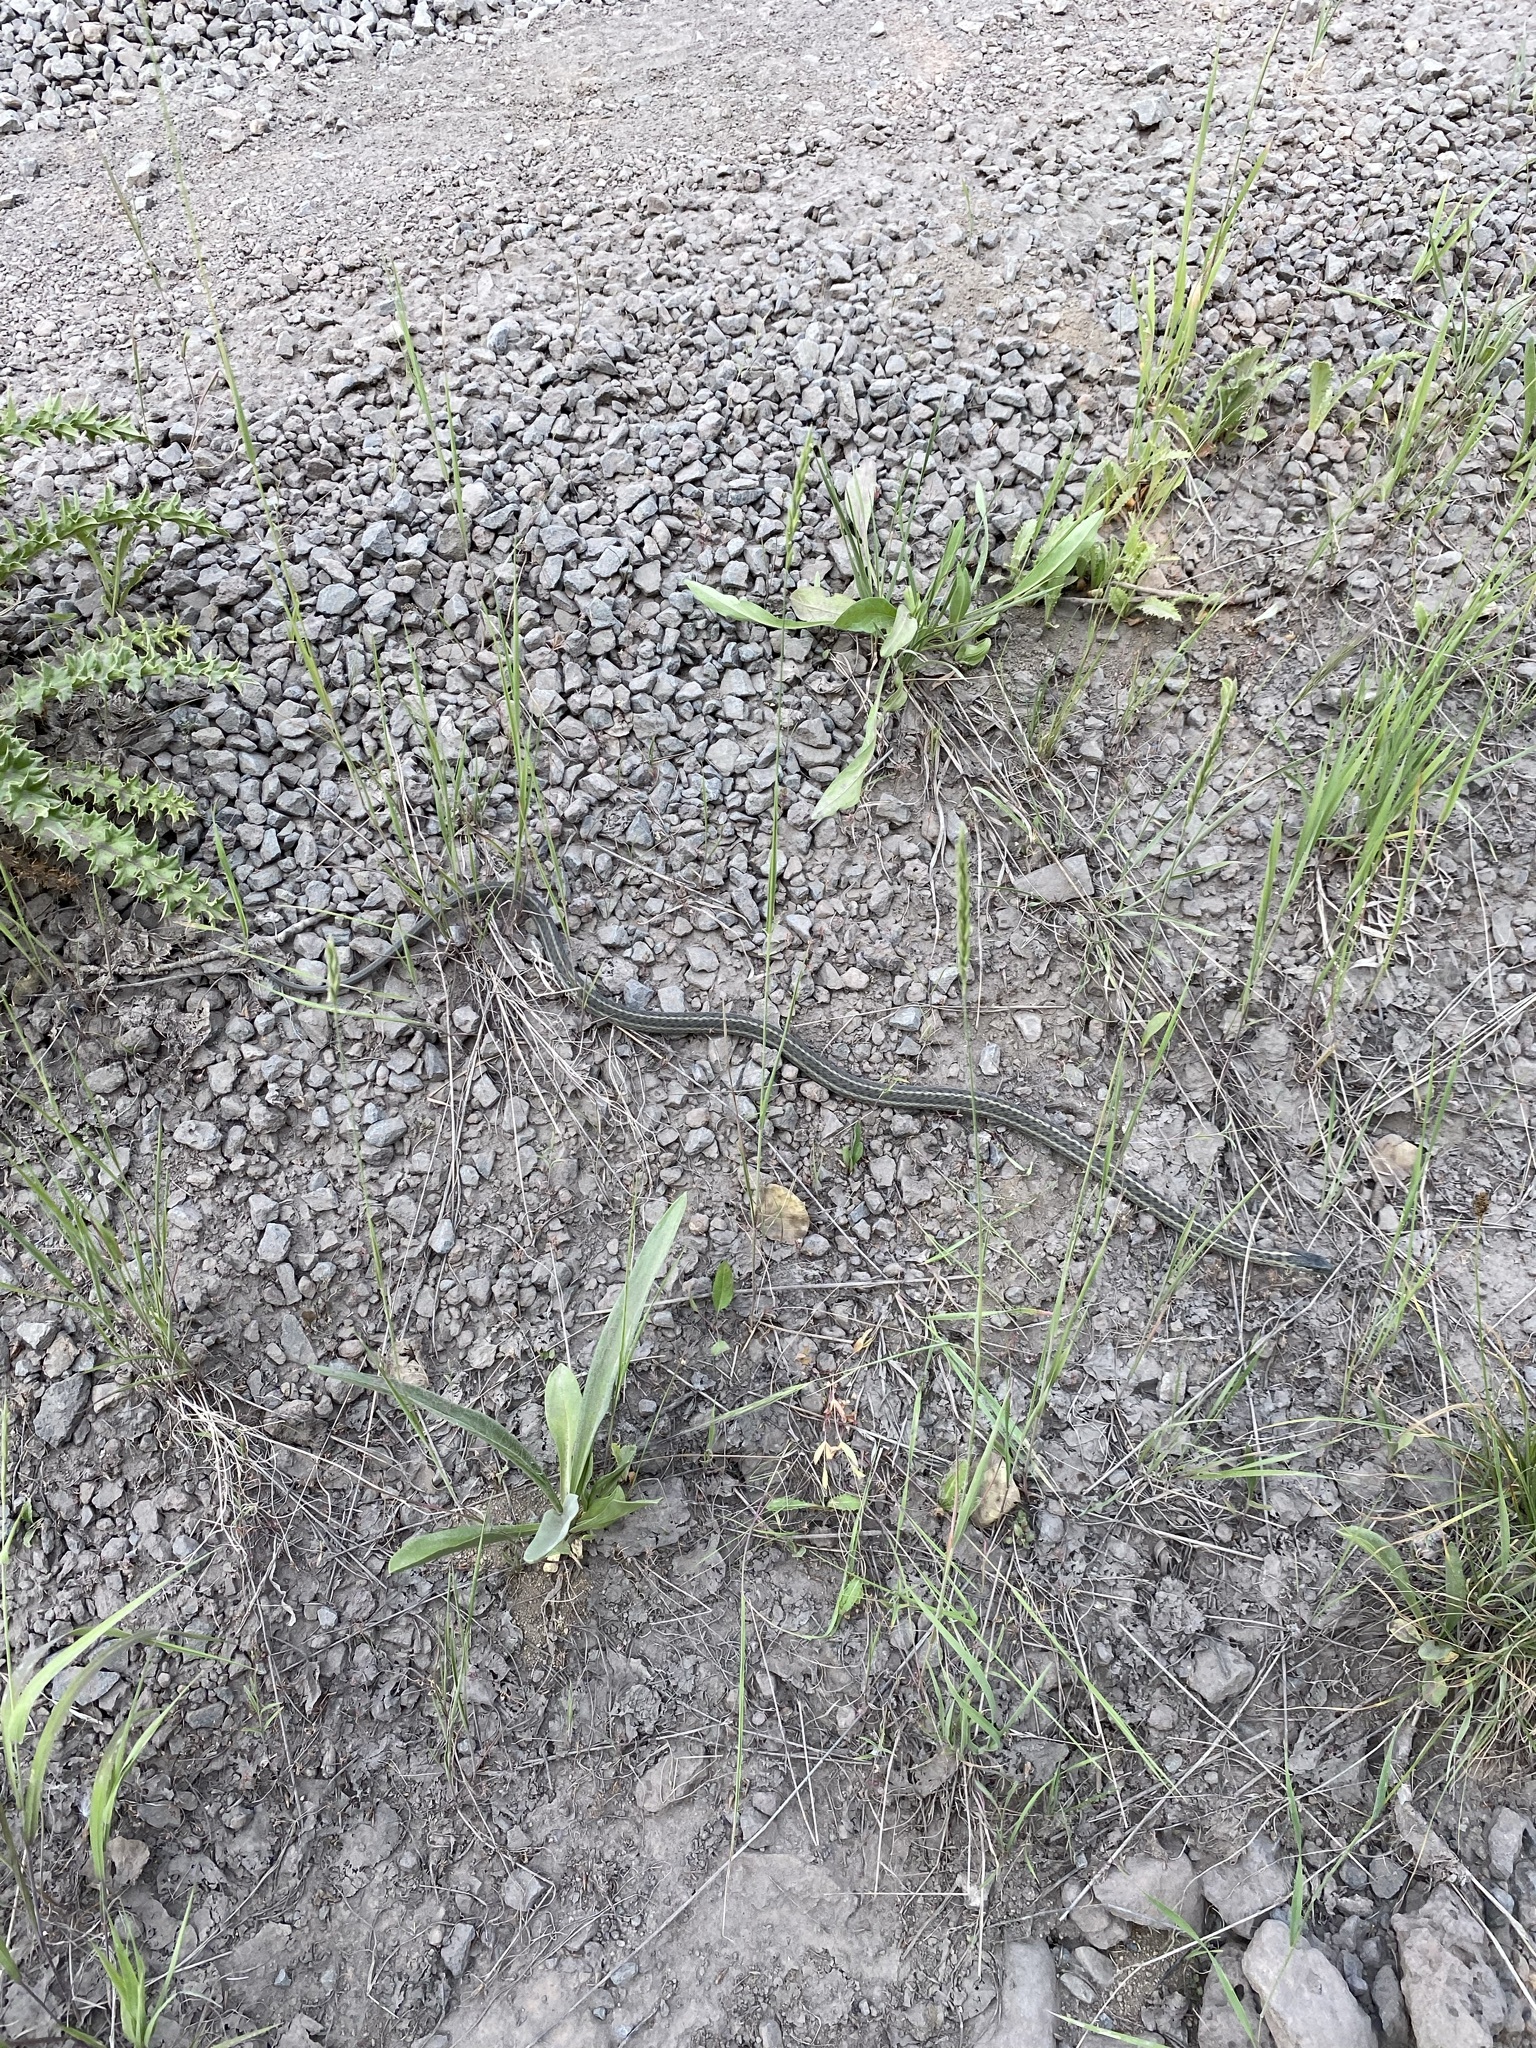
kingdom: Animalia
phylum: Chordata
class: Squamata
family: Colubridae
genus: Thamnophis
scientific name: Thamnophis elegans
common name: Western terrestrial garter snake
